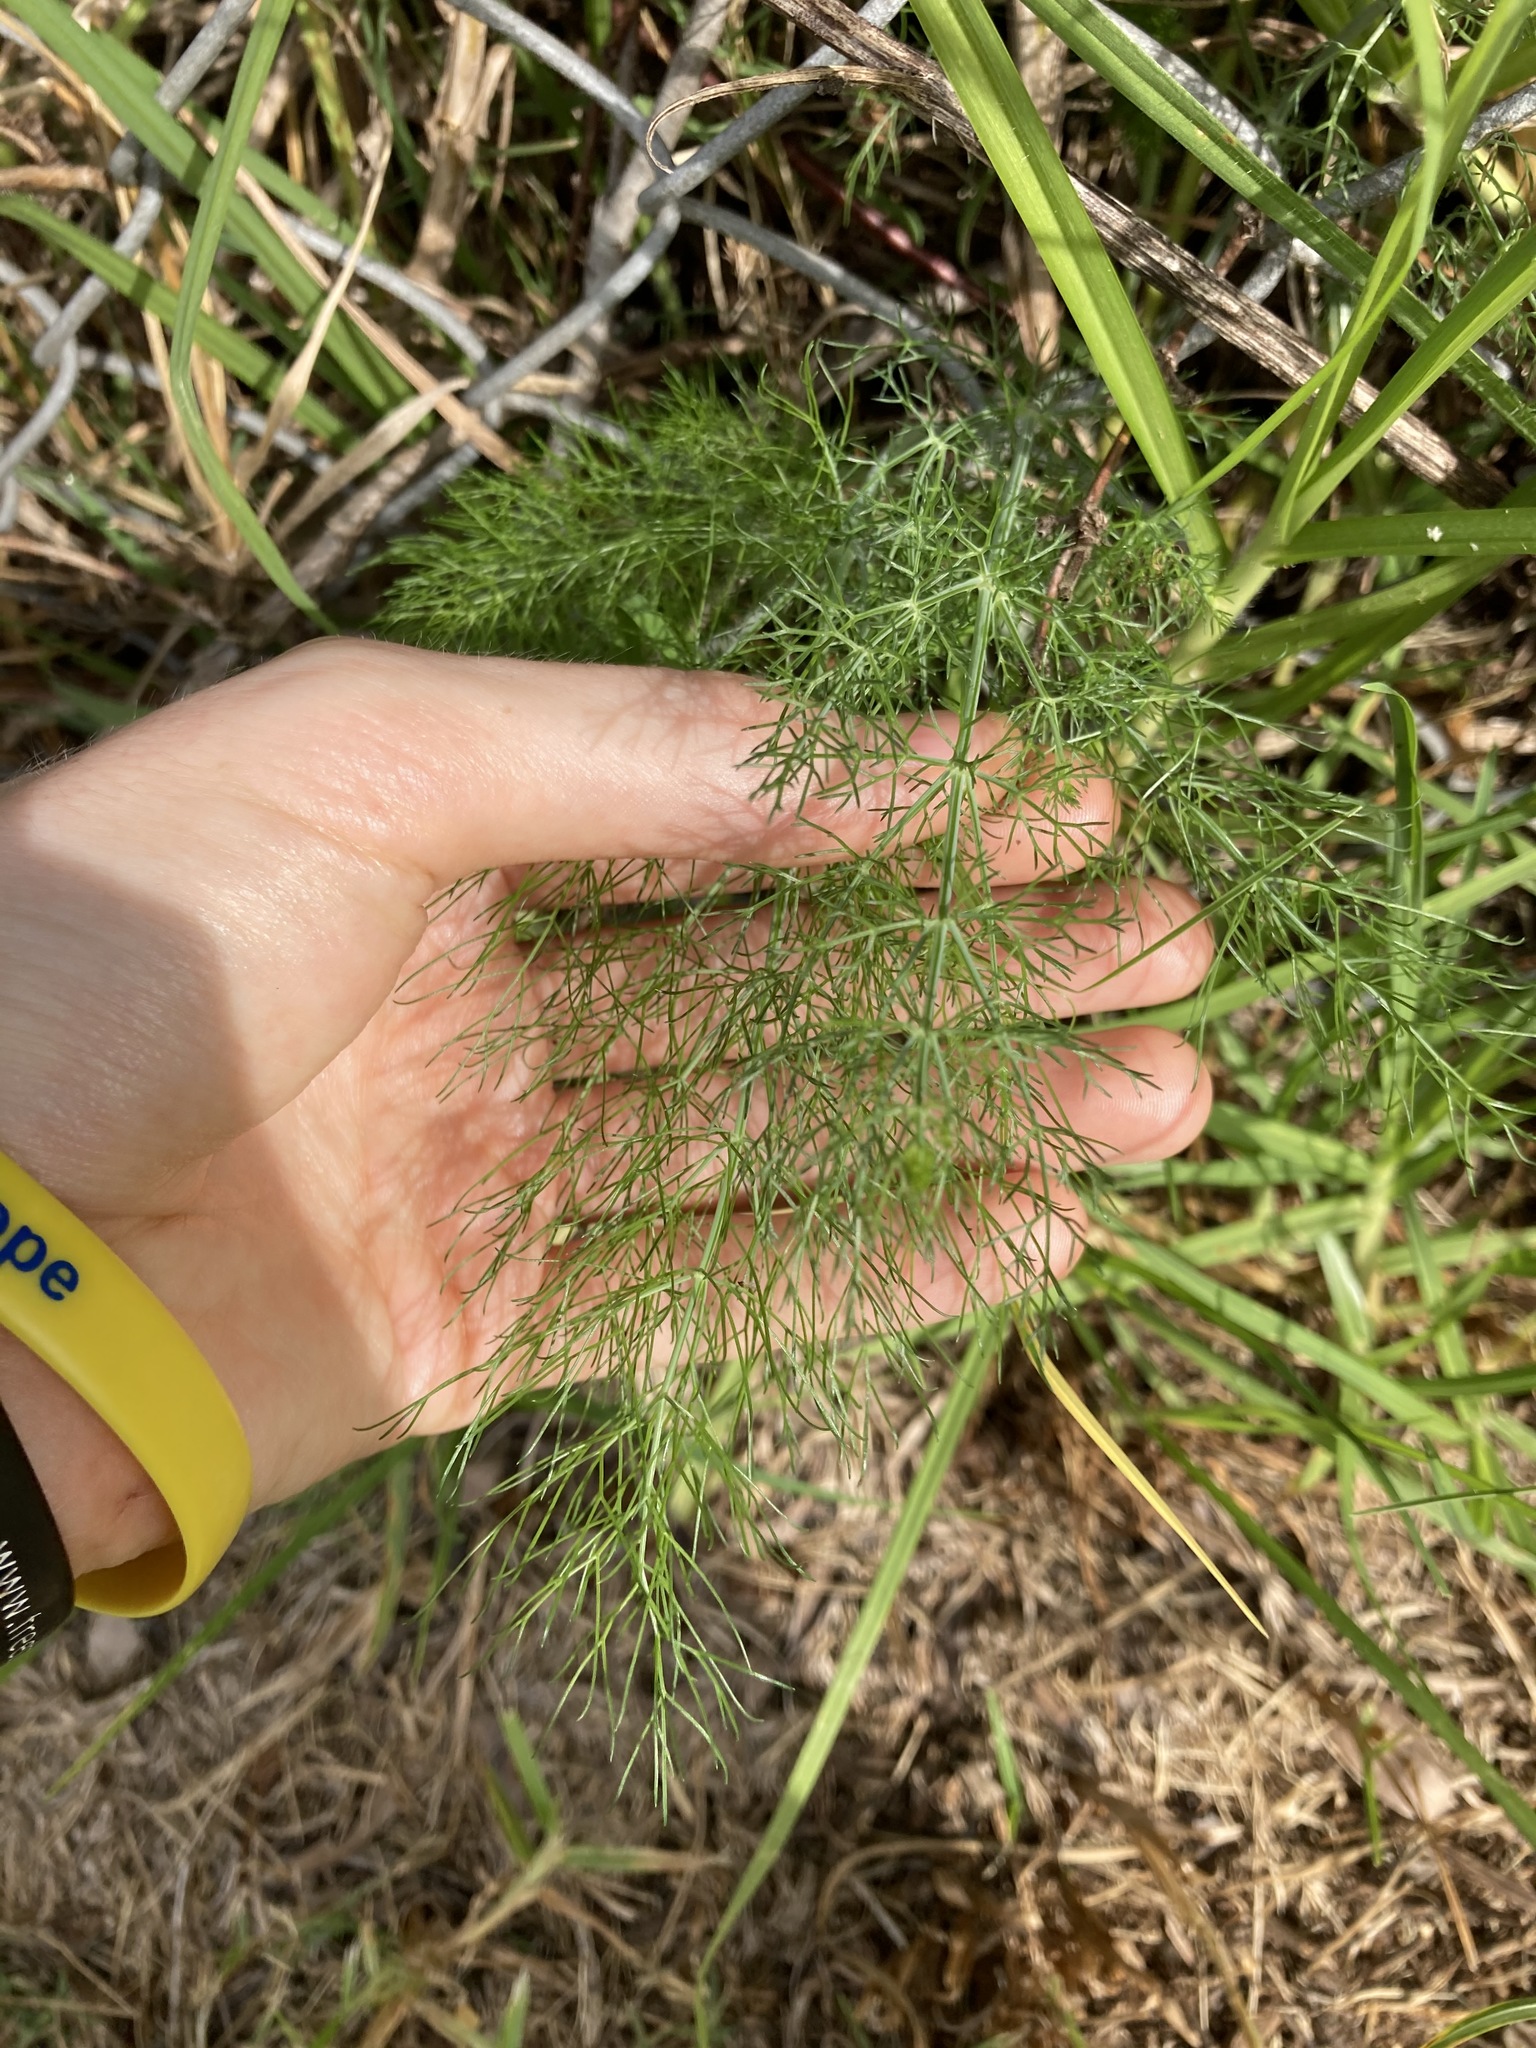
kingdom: Plantae
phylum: Tracheophyta
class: Magnoliopsida
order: Apiales
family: Apiaceae
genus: Foeniculum
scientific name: Foeniculum vulgare
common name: Fennel
